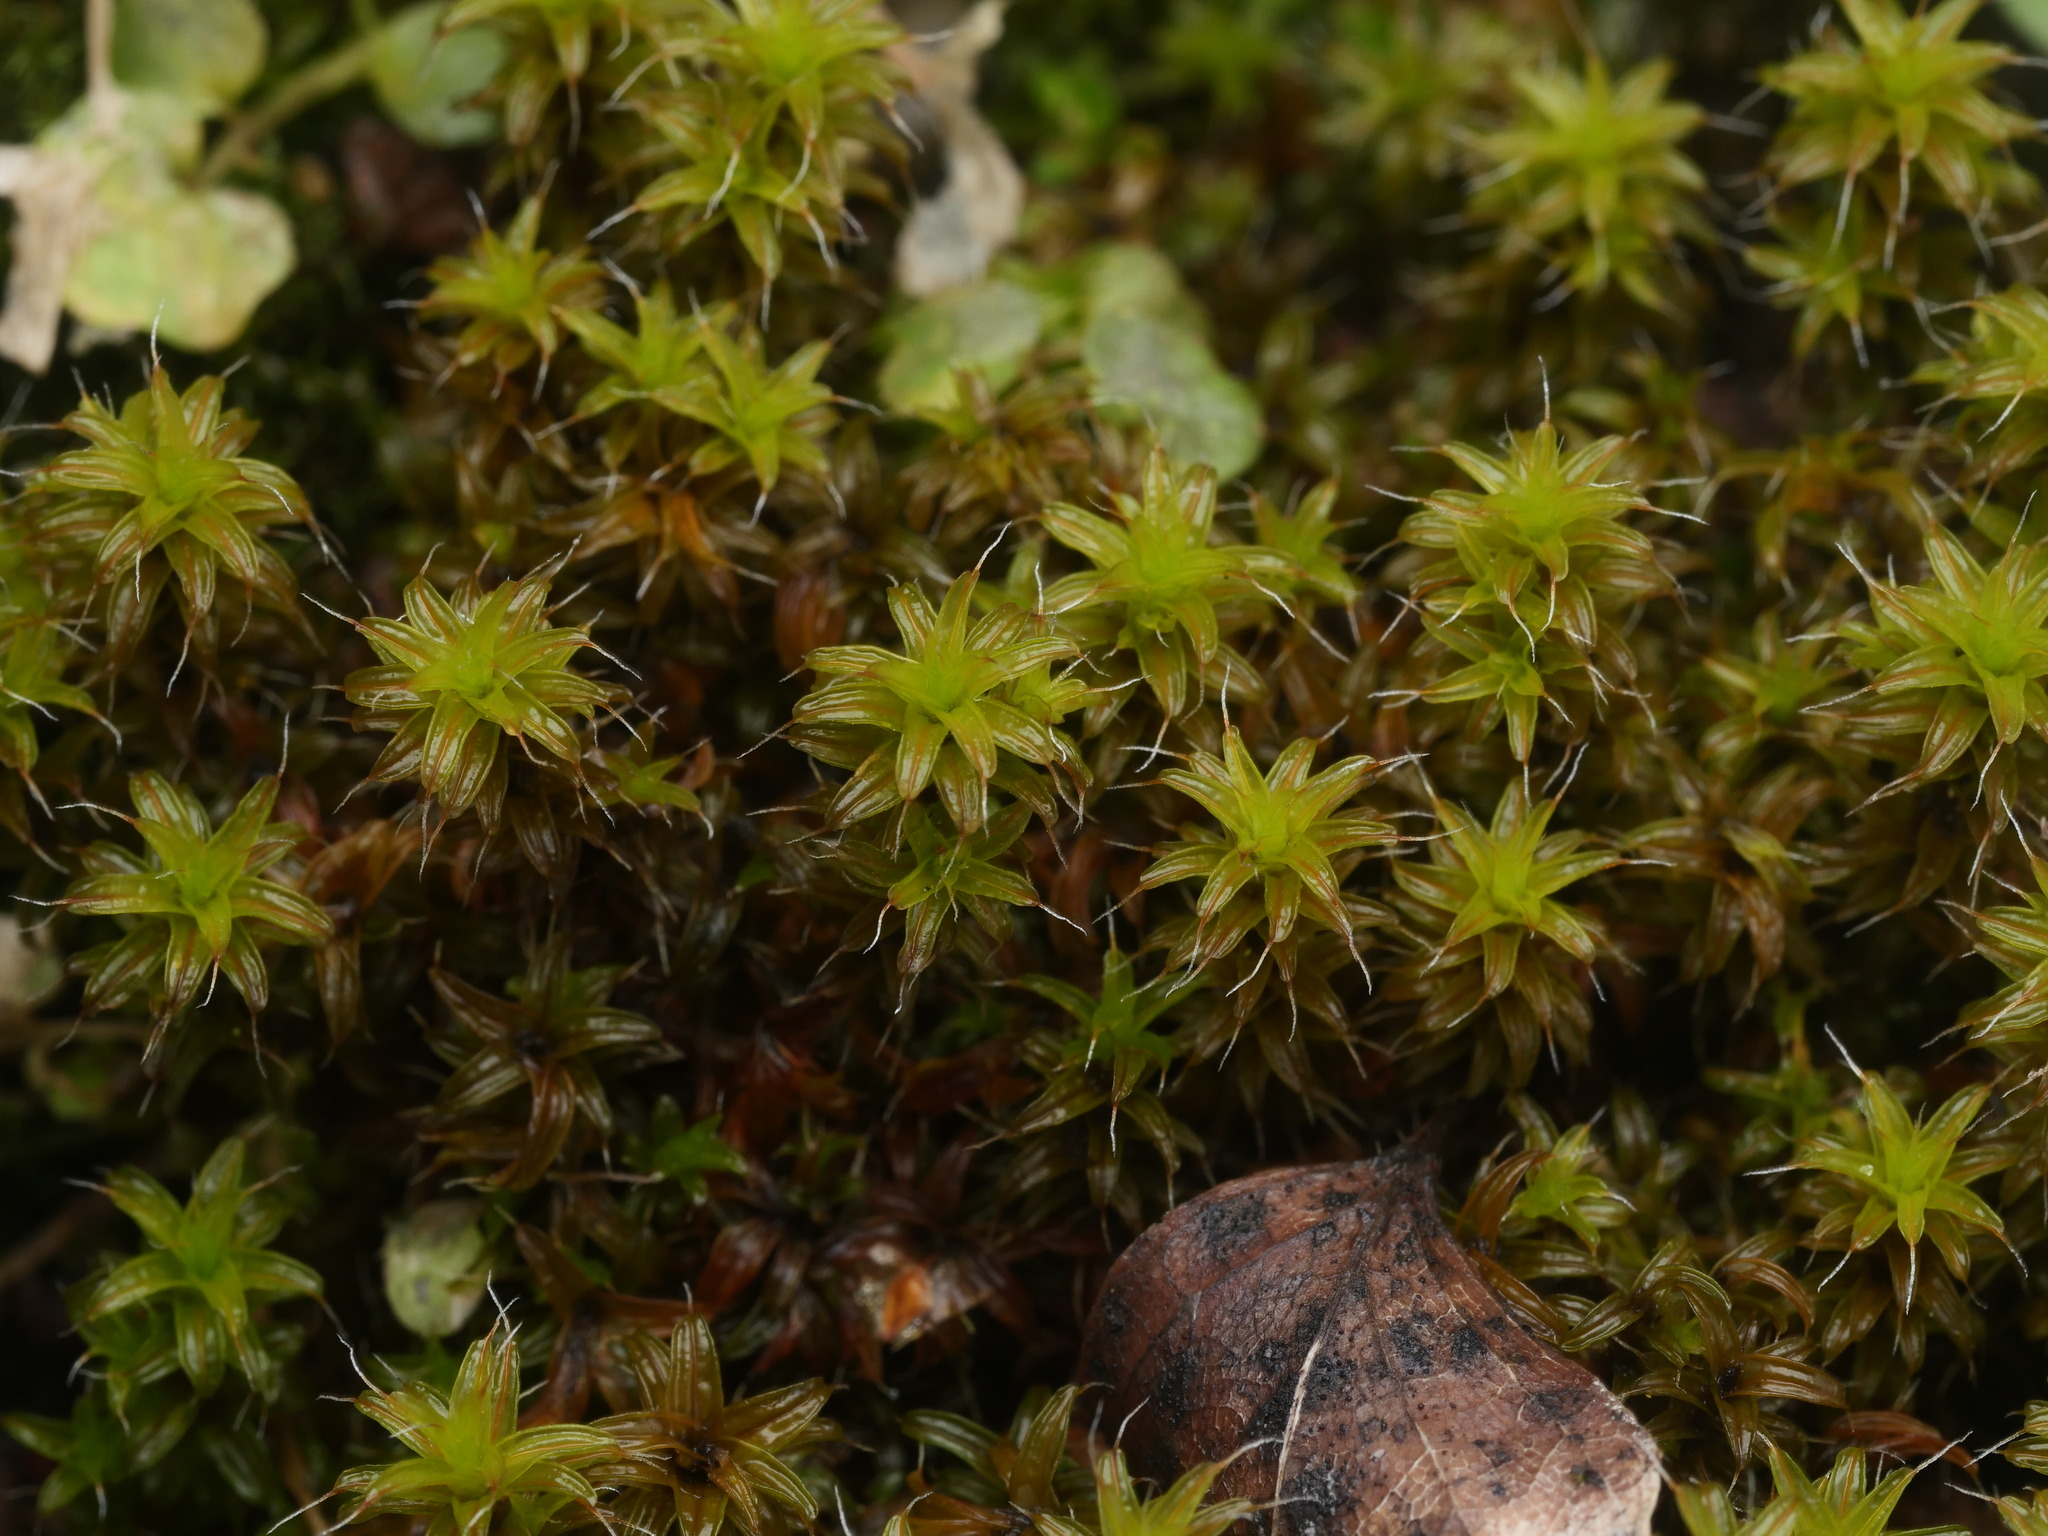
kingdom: Plantae
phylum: Bryophyta
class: Bryopsida
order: Pottiales
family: Pottiaceae
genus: Syntrichia
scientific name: Syntrichia ruralis
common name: Sidewalk screw moss
